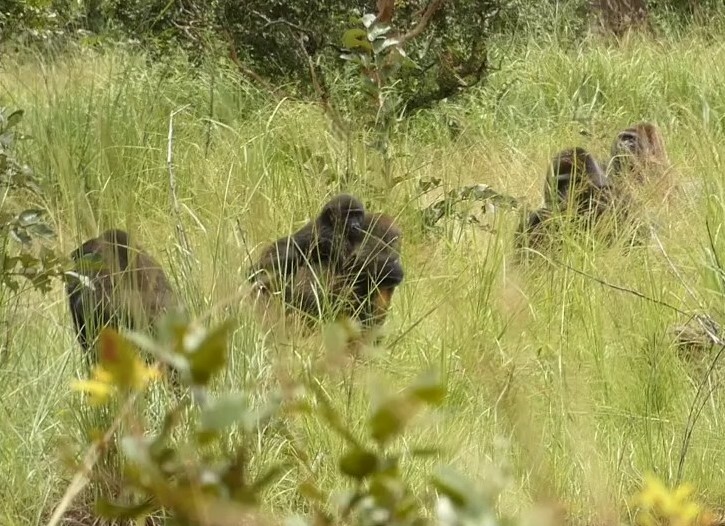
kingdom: Animalia
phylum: Chordata
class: Mammalia
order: Primates
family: Hominidae
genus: Gorilla
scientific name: Gorilla gorilla
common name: Western gorilla
